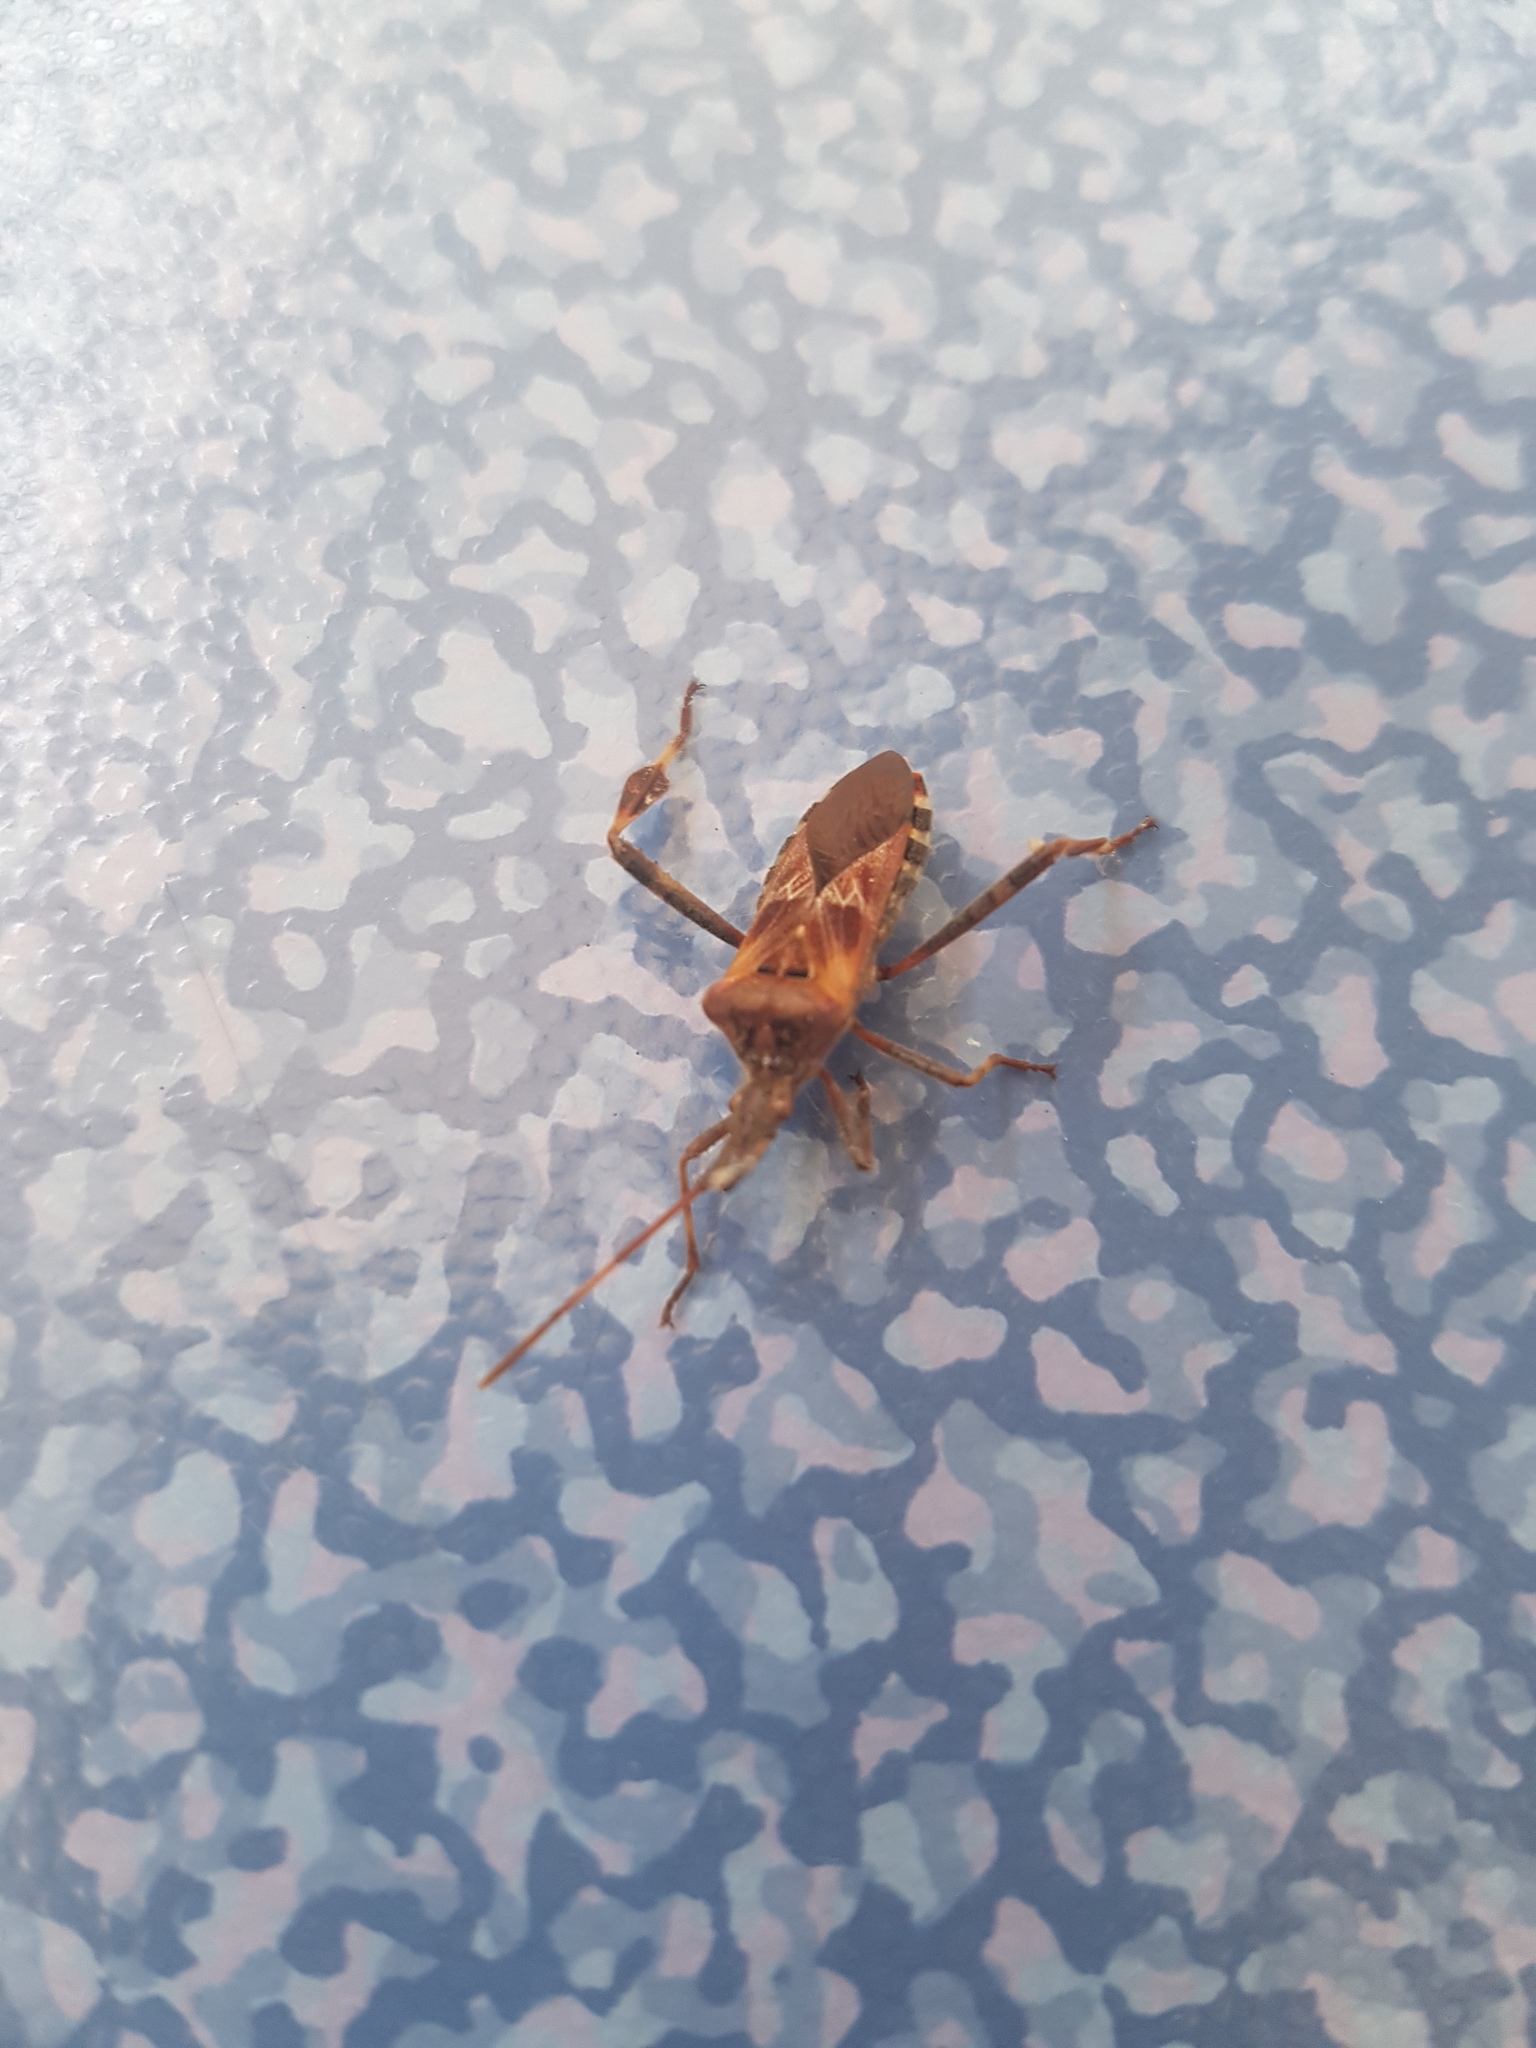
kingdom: Animalia
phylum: Arthropoda
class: Insecta
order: Hemiptera
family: Coreidae
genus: Leptoglossus
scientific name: Leptoglossus occidentalis
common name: Western conifer-seed bug
